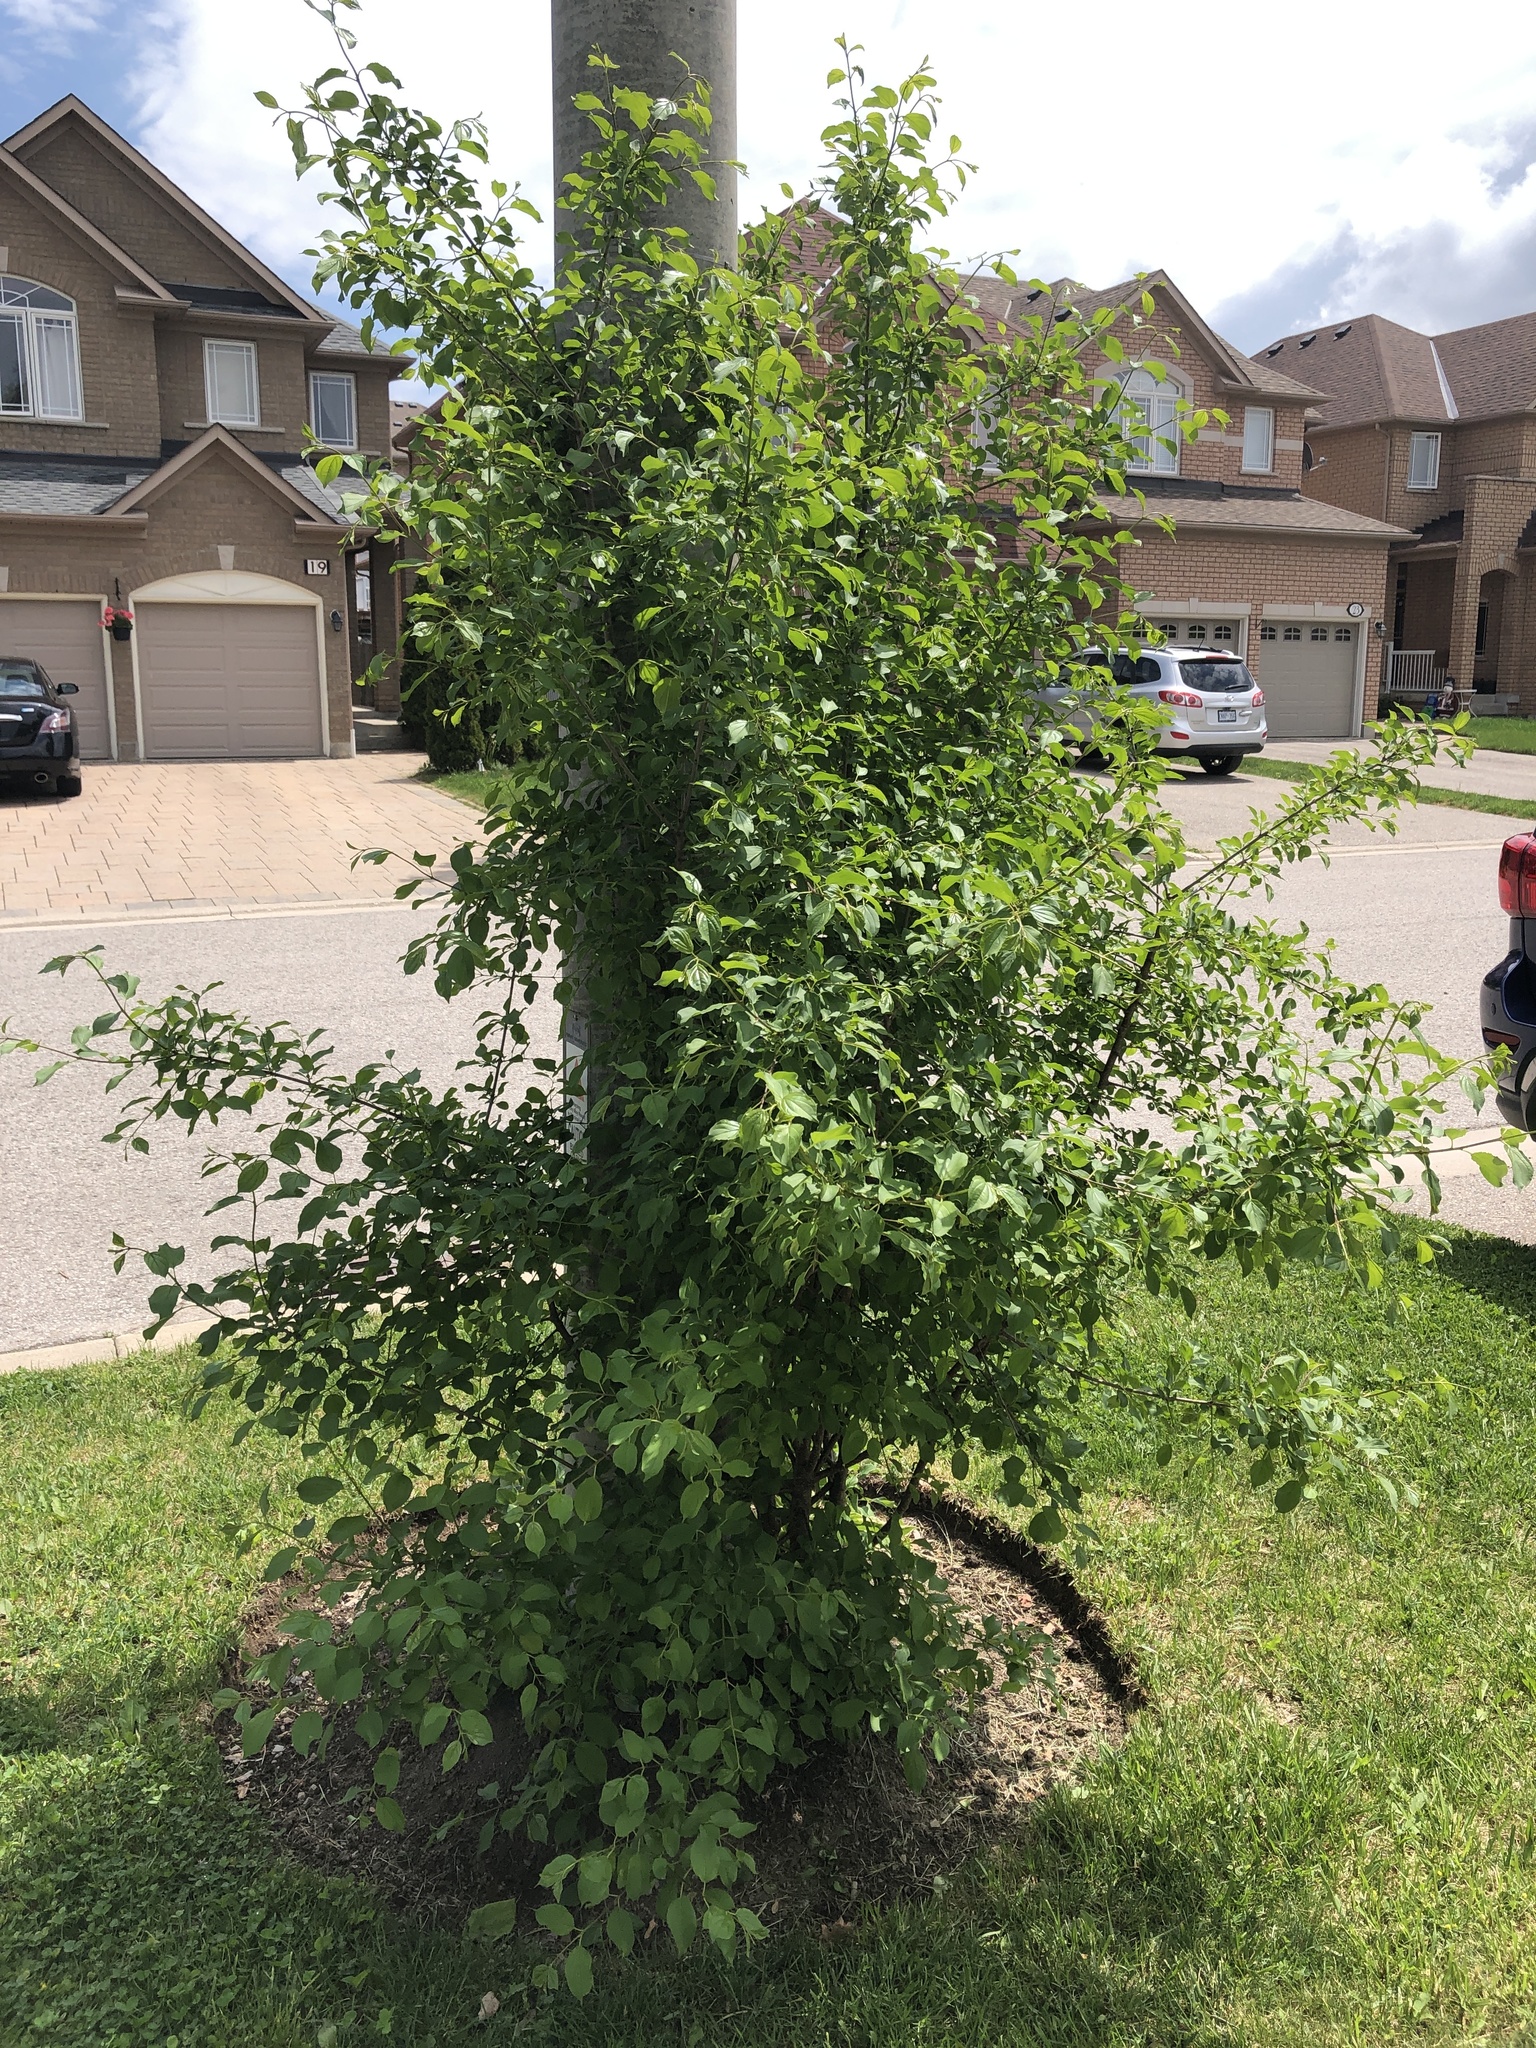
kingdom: Plantae
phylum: Tracheophyta
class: Magnoliopsida
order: Rosales
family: Rhamnaceae
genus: Rhamnus
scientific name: Rhamnus cathartica
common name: Common buckthorn
